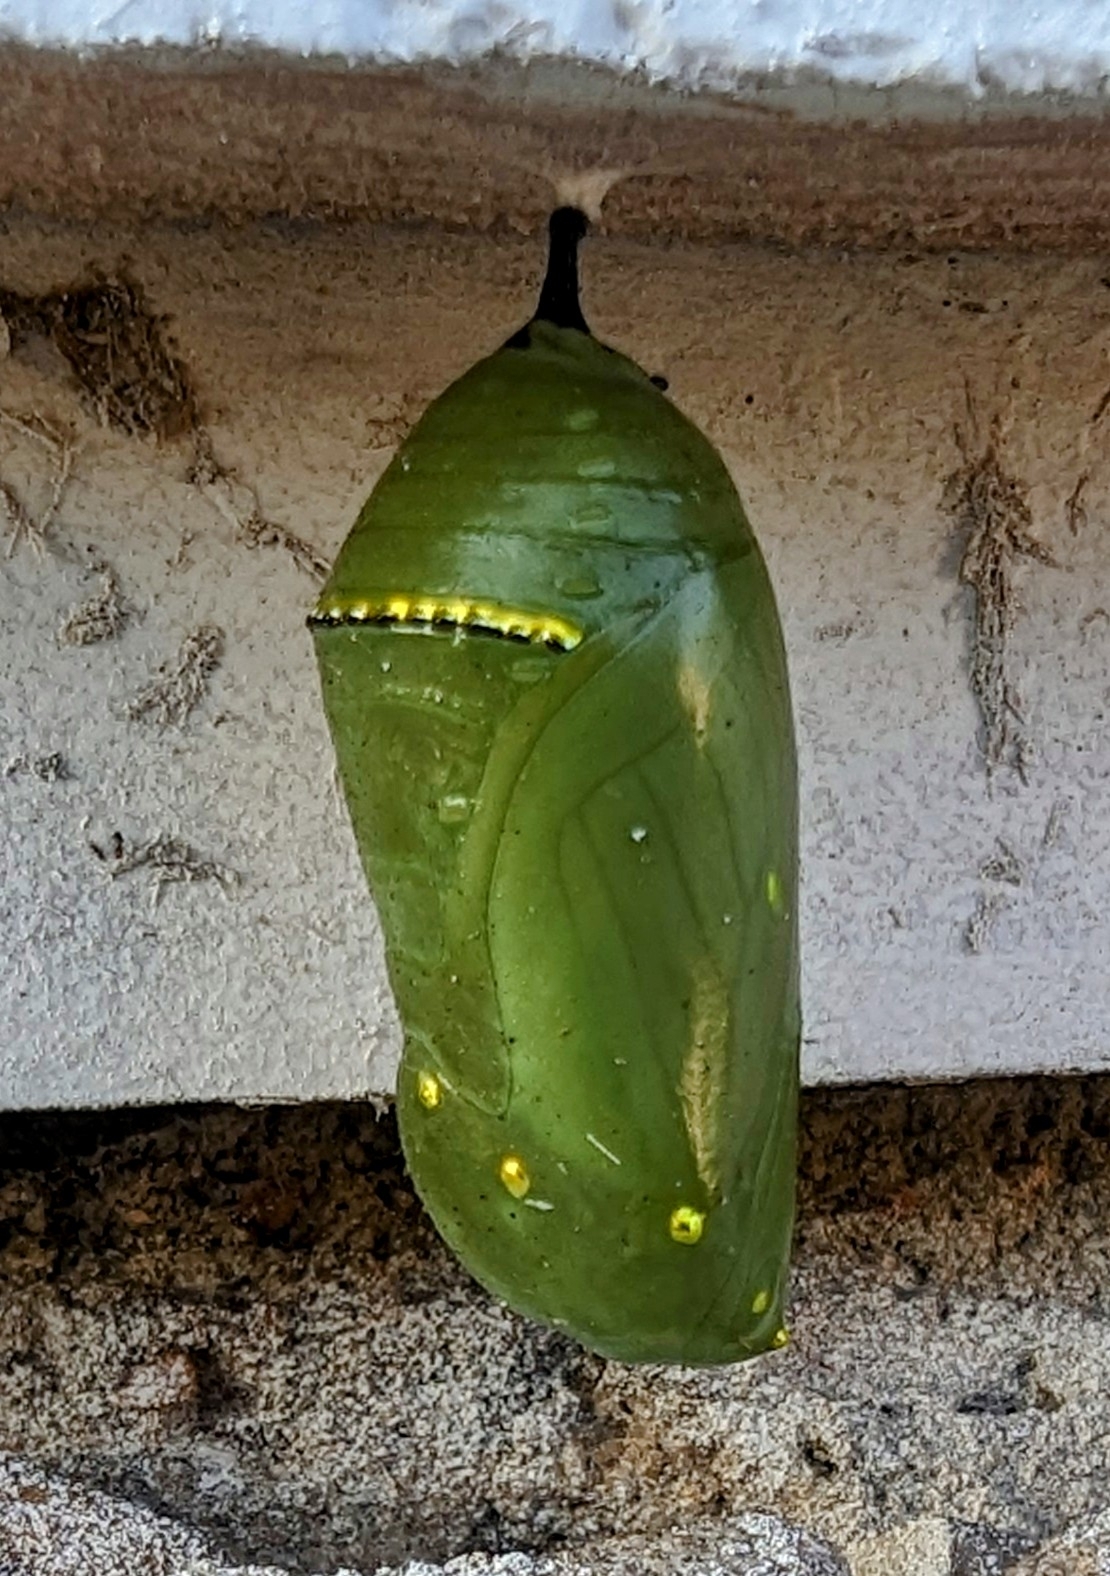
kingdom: Animalia
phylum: Arthropoda
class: Insecta
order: Lepidoptera
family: Nymphalidae
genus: Danaus
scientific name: Danaus plexippus
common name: Monarch
